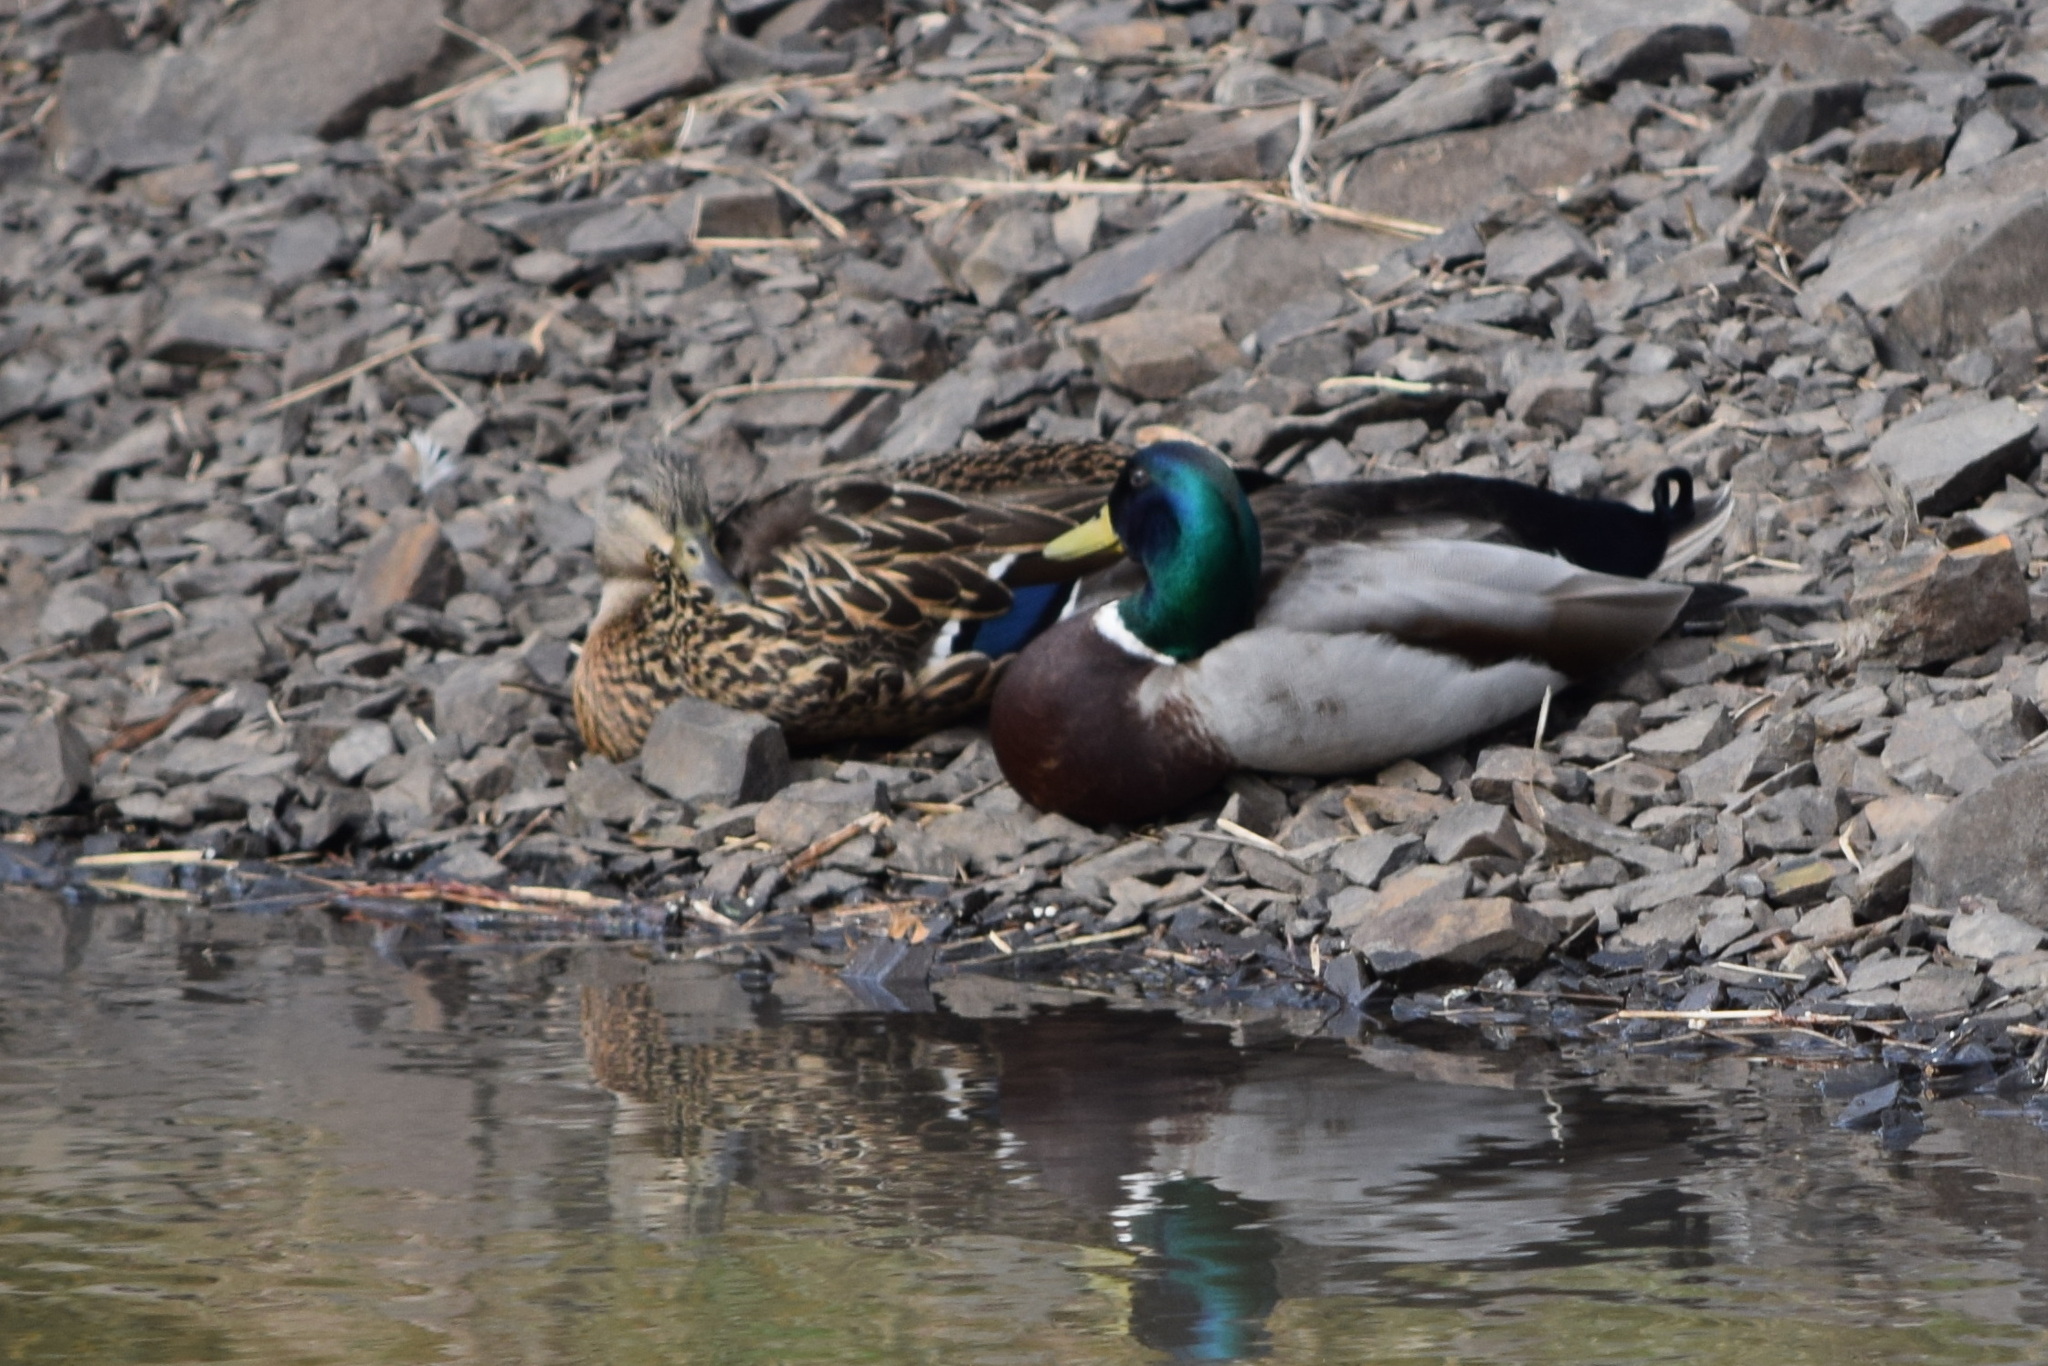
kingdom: Animalia
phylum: Chordata
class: Aves
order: Anseriformes
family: Anatidae
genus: Anas
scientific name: Anas platyrhynchos
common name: Mallard
